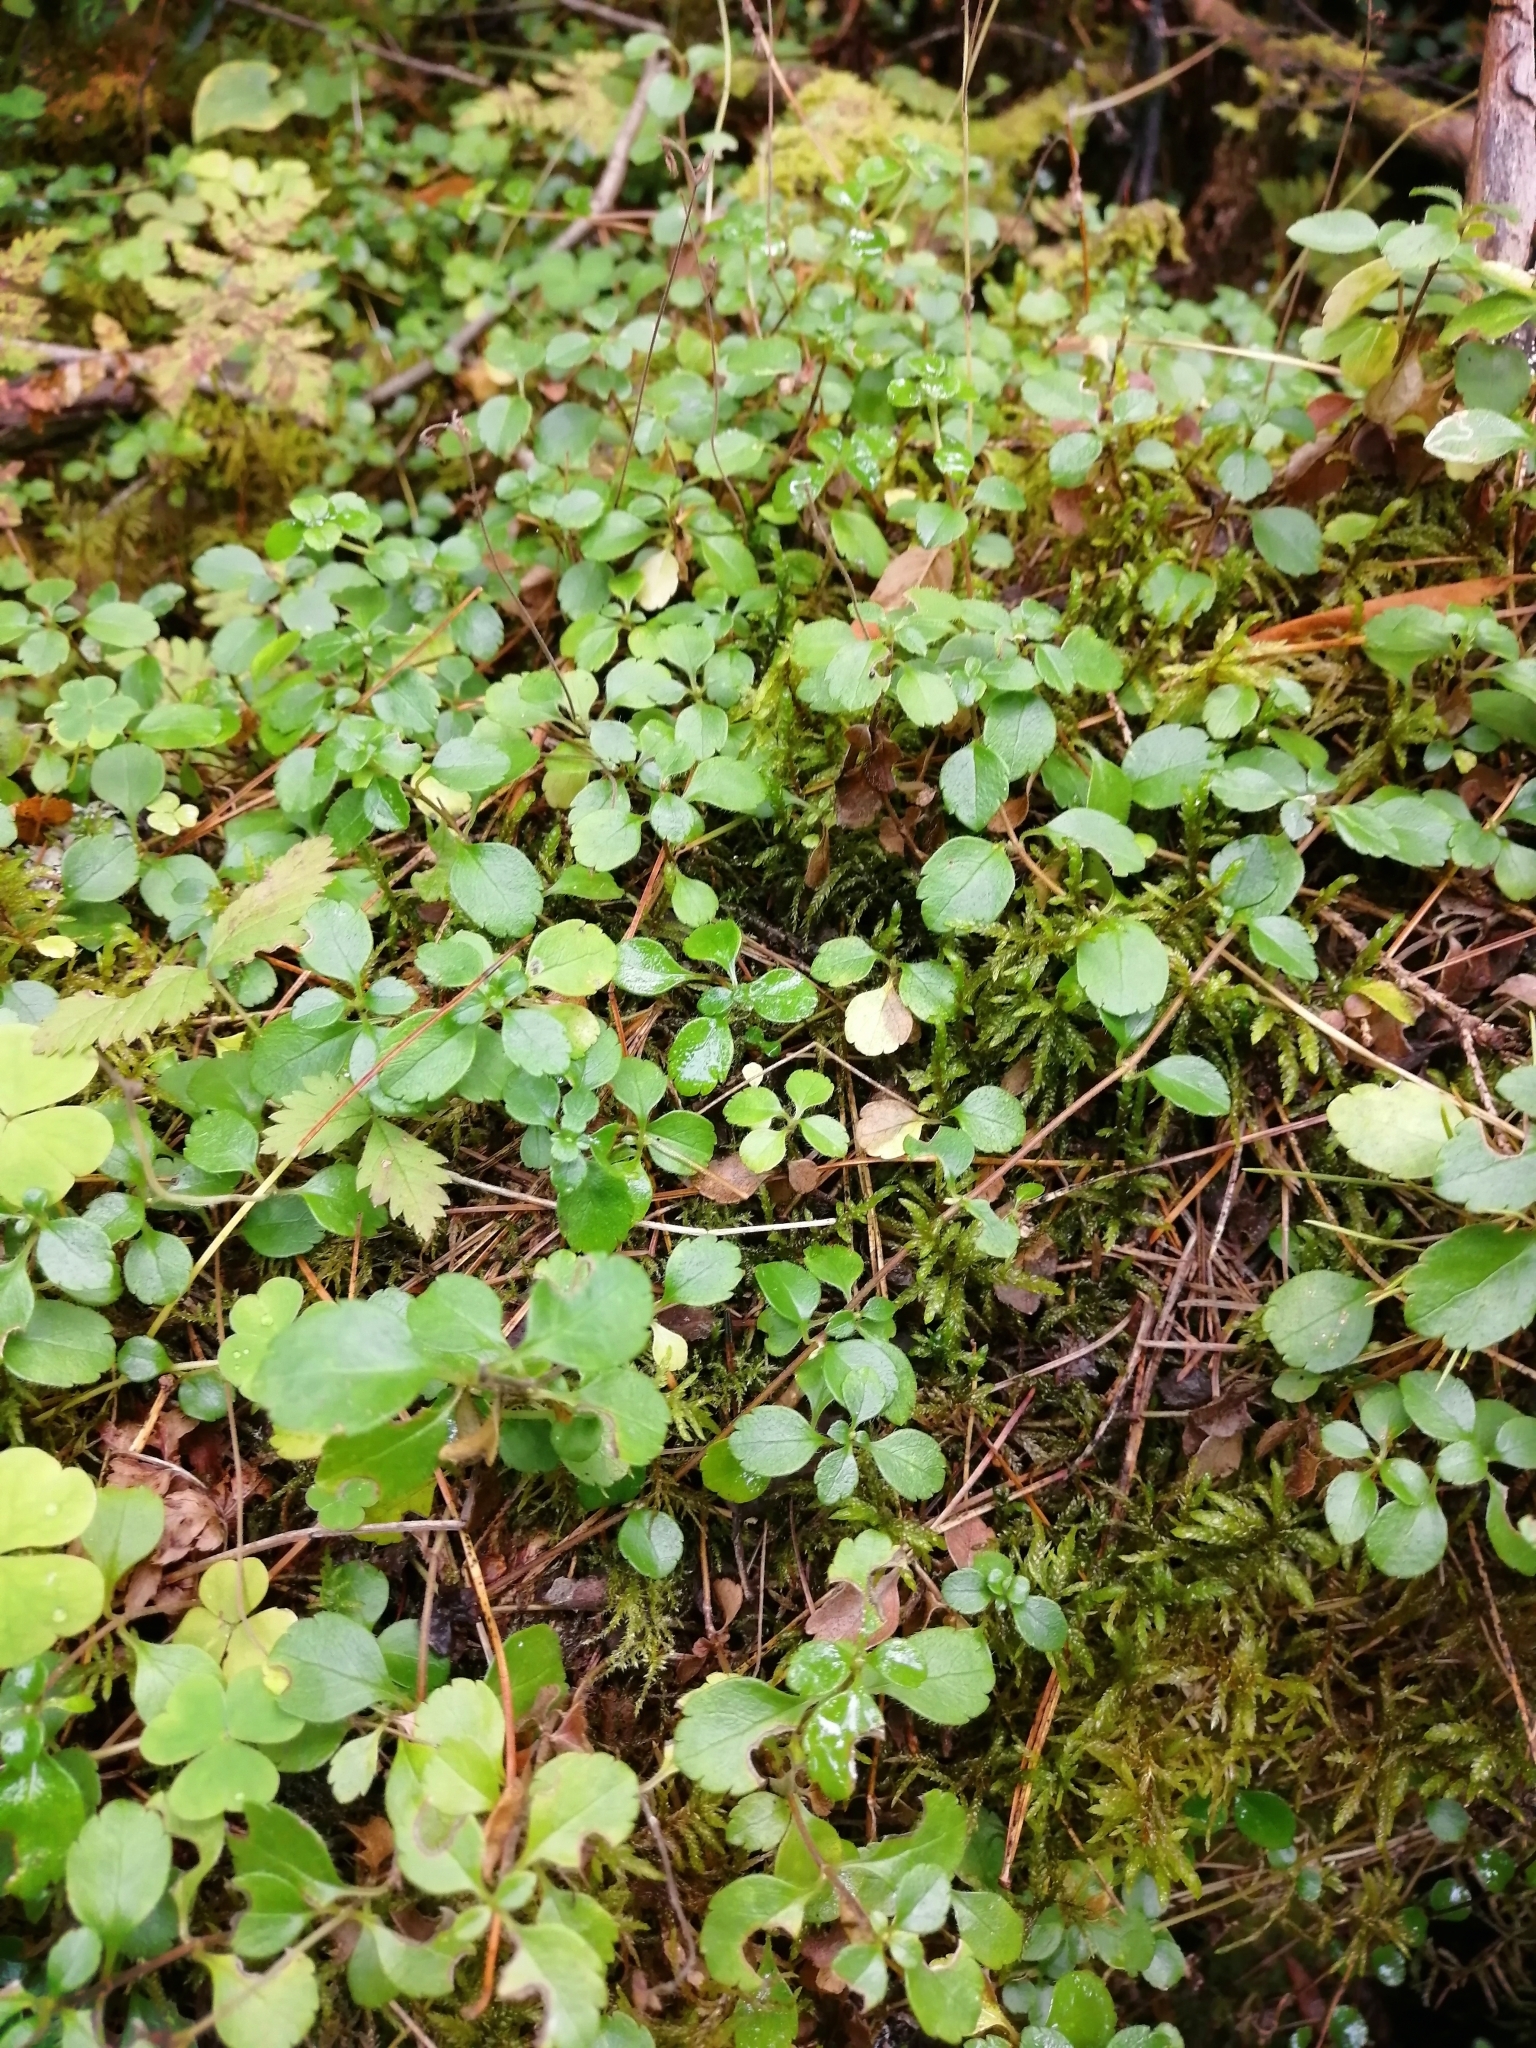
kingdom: Plantae
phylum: Tracheophyta
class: Magnoliopsida
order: Dipsacales
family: Caprifoliaceae
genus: Linnaea
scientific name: Linnaea borealis
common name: Twinflower
